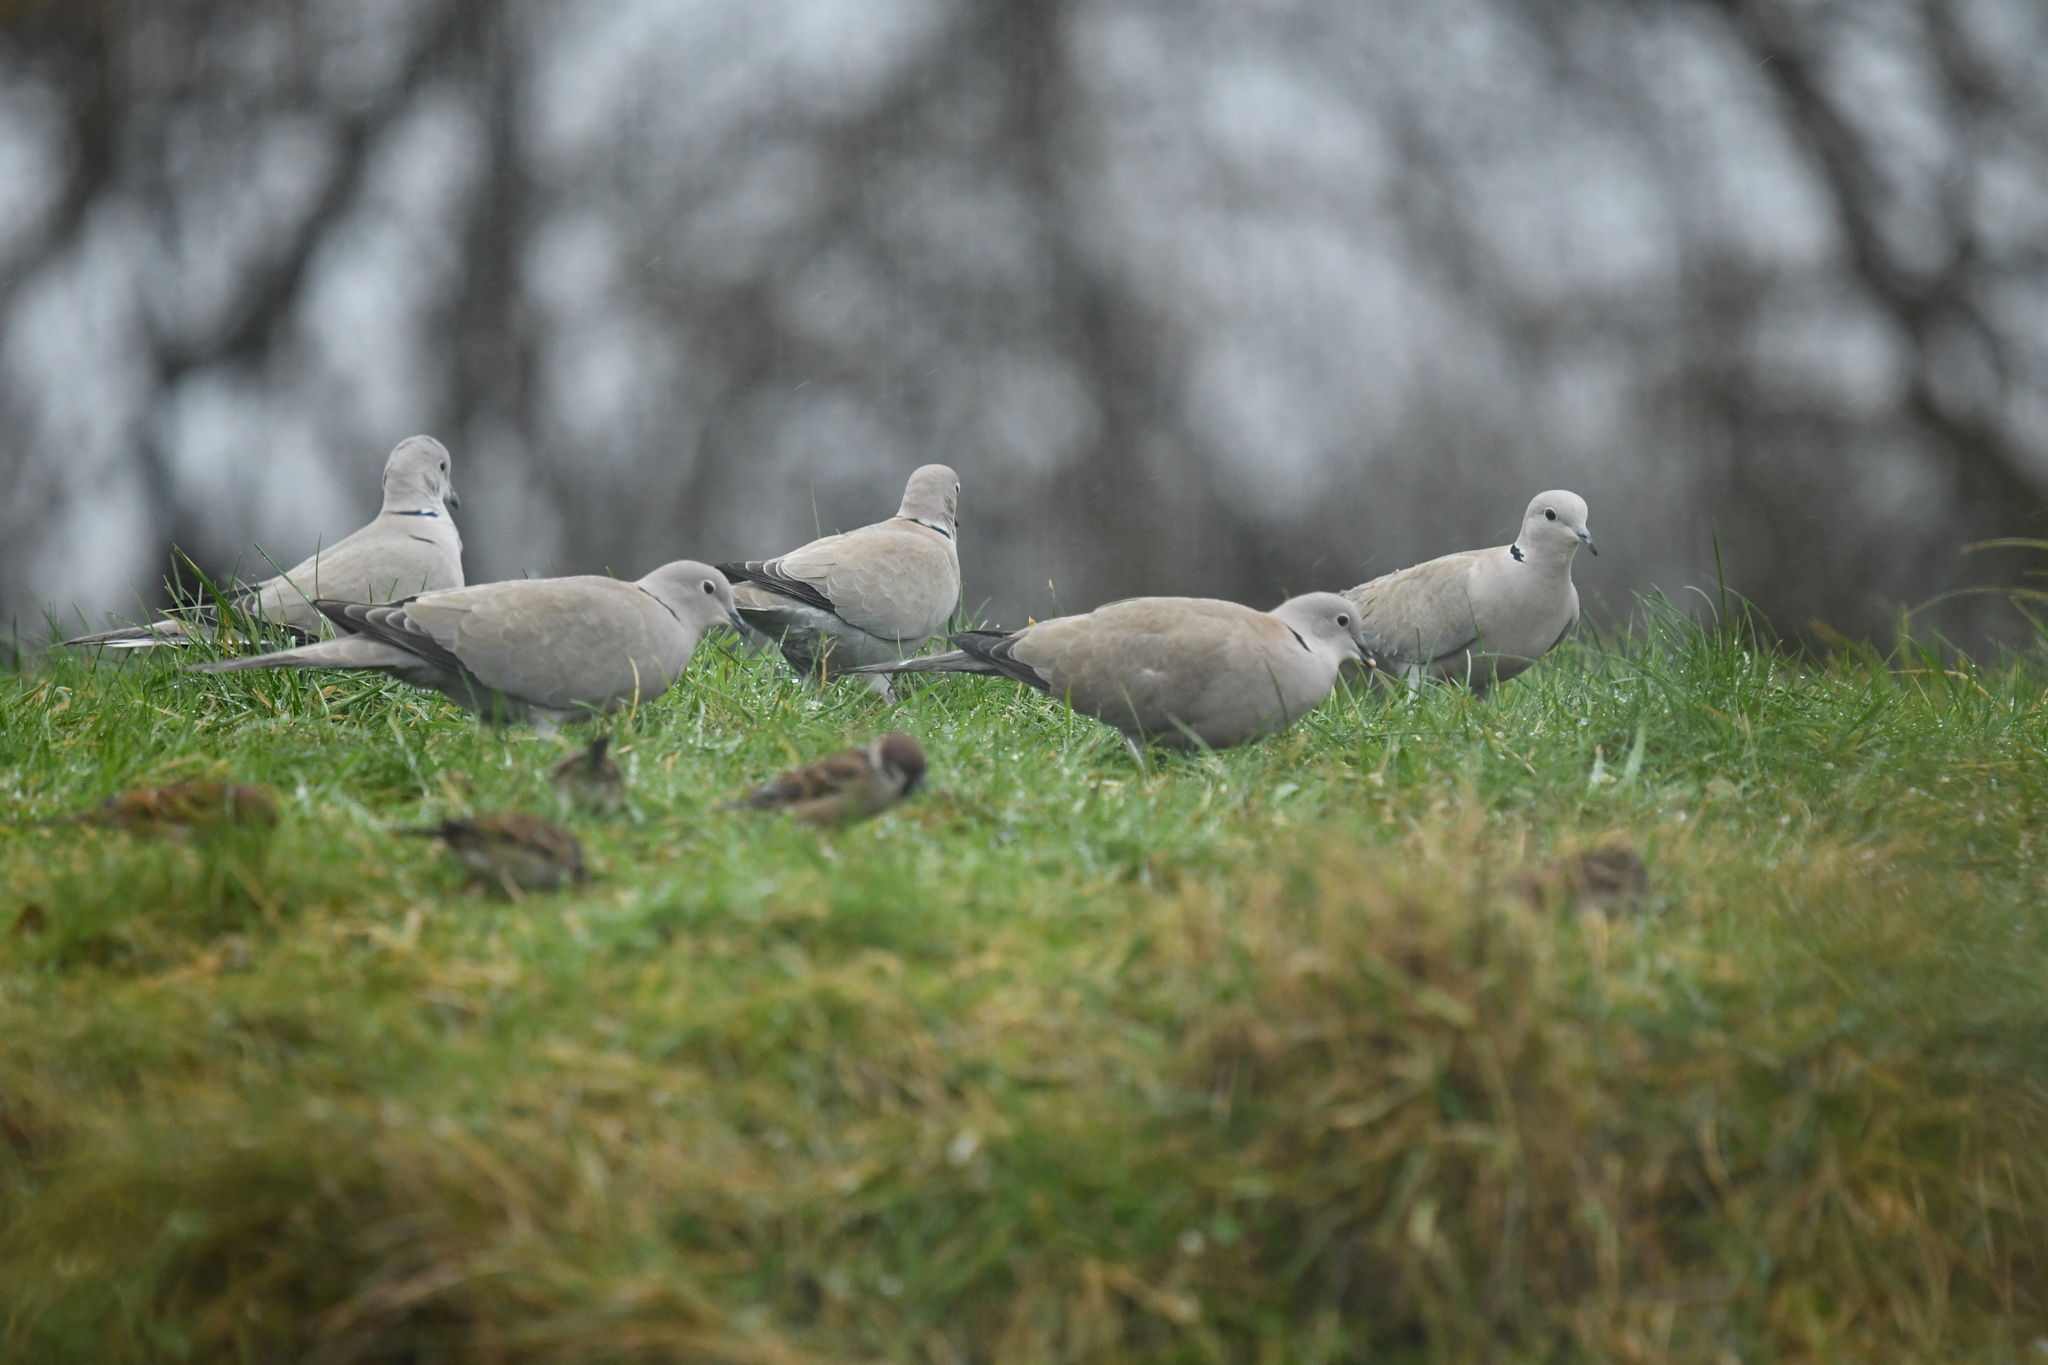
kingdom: Animalia
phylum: Chordata
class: Aves
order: Columbiformes
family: Columbidae
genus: Streptopelia
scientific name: Streptopelia decaocto
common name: Eurasian collared dove
